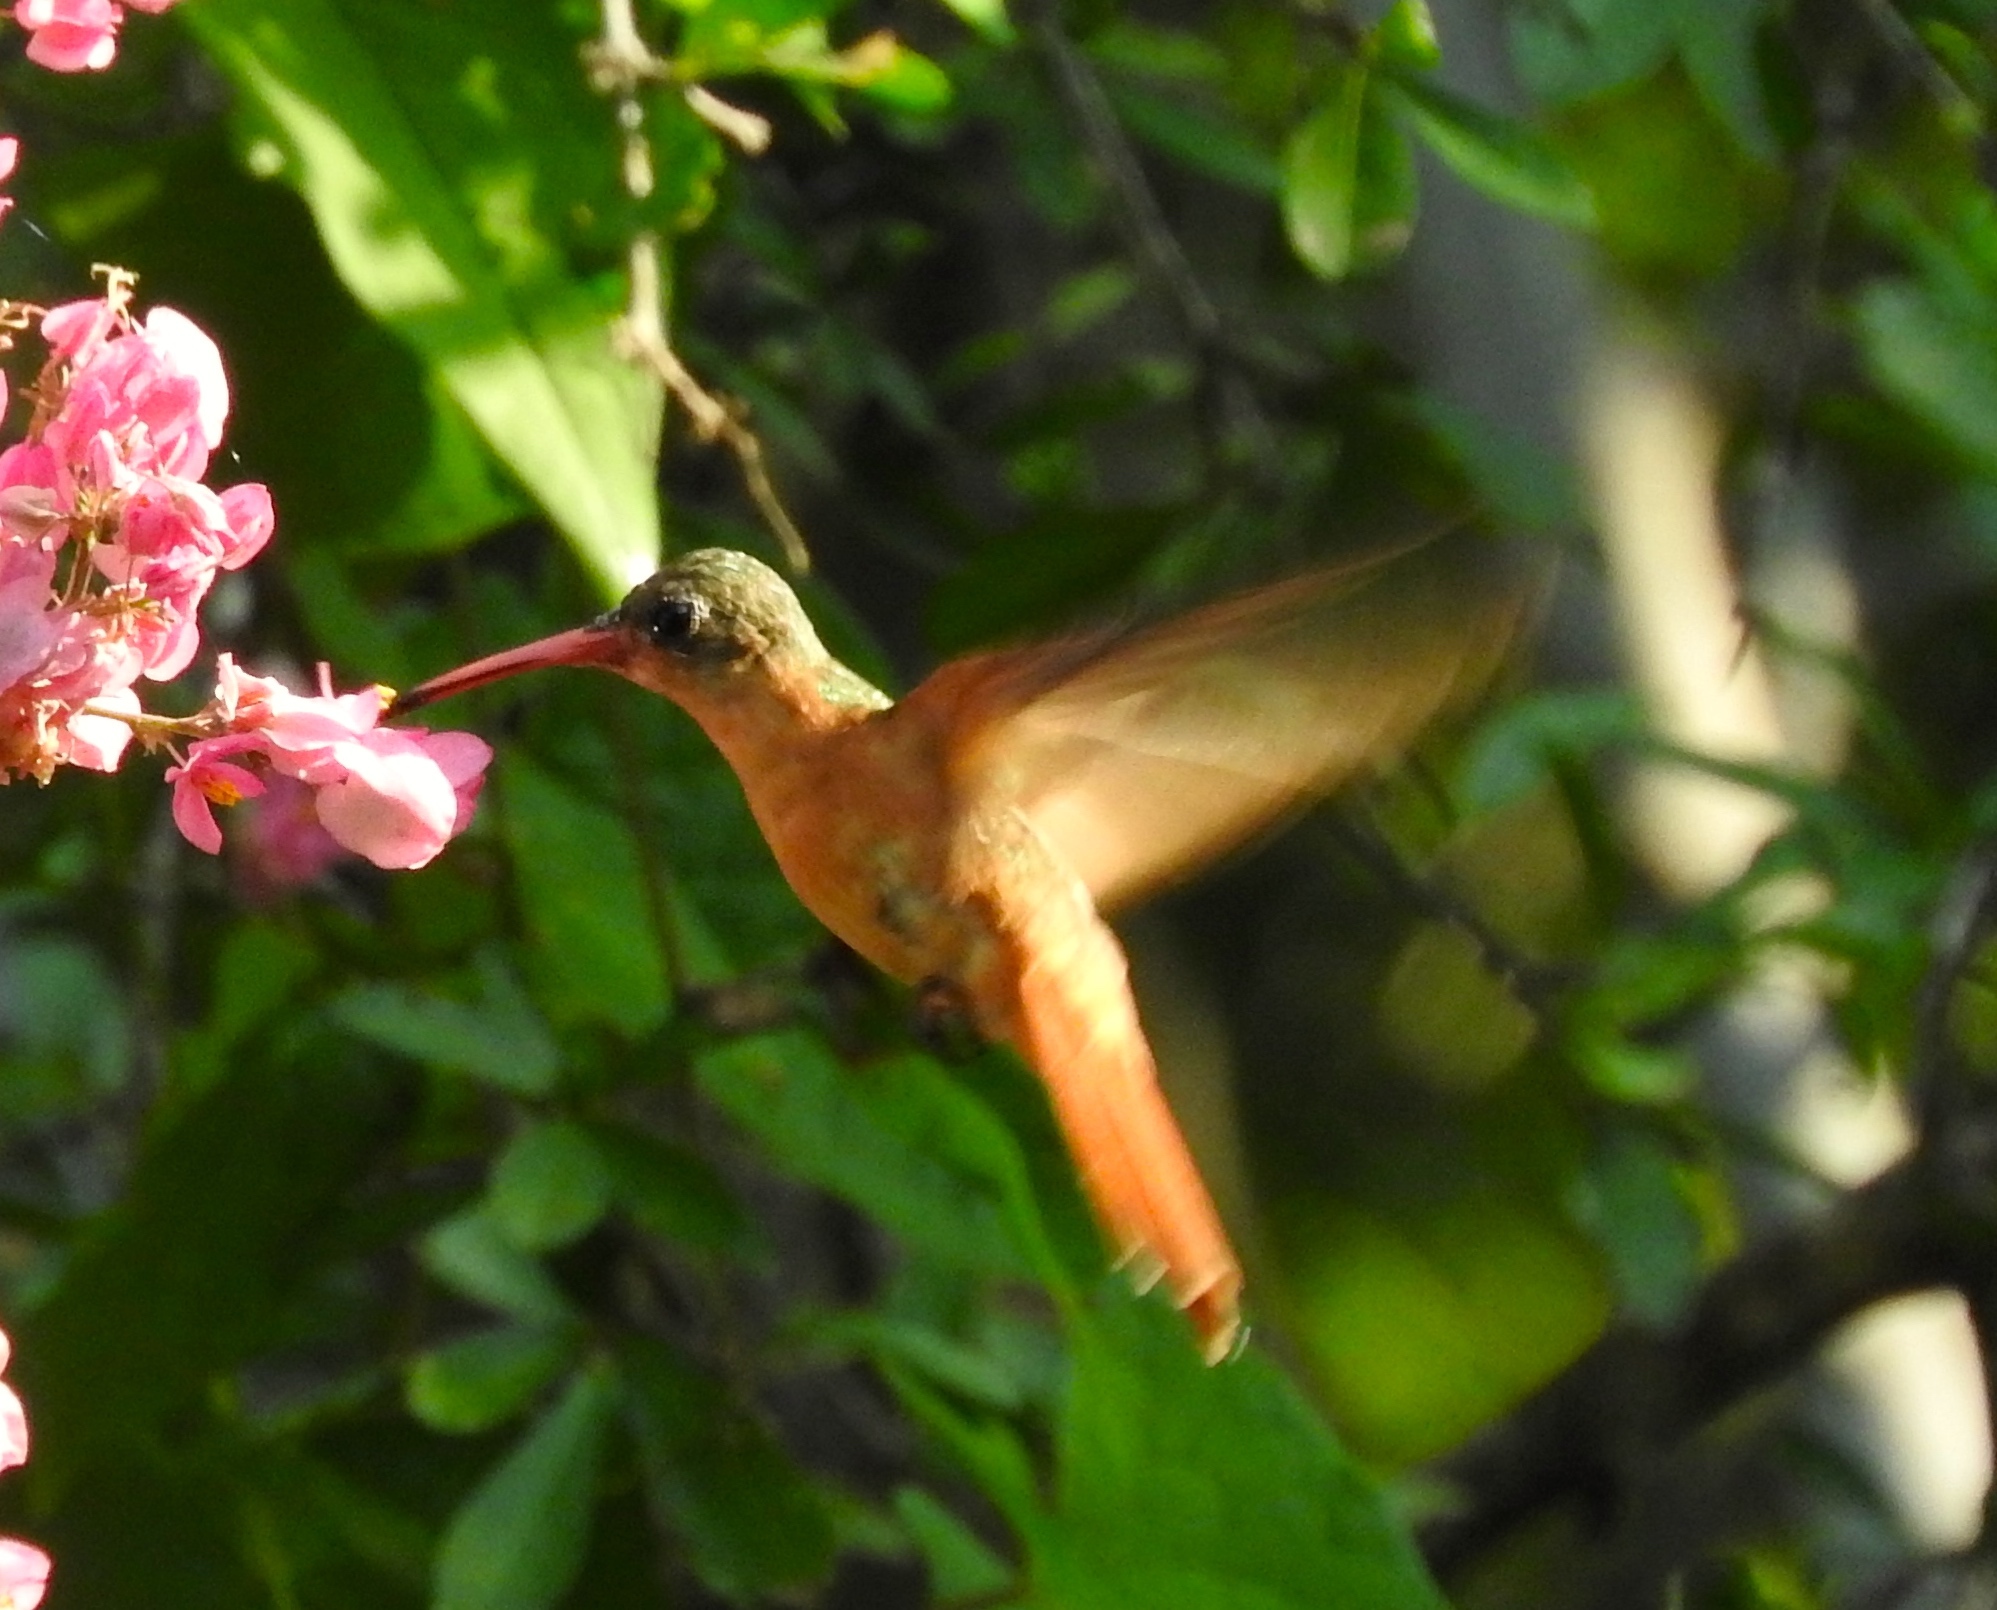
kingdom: Animalia
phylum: Chordata
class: Aves
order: Apodiformes
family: Trochilidae
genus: Amazilia
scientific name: Amazilia rutila
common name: Cinnamon hummingbird
